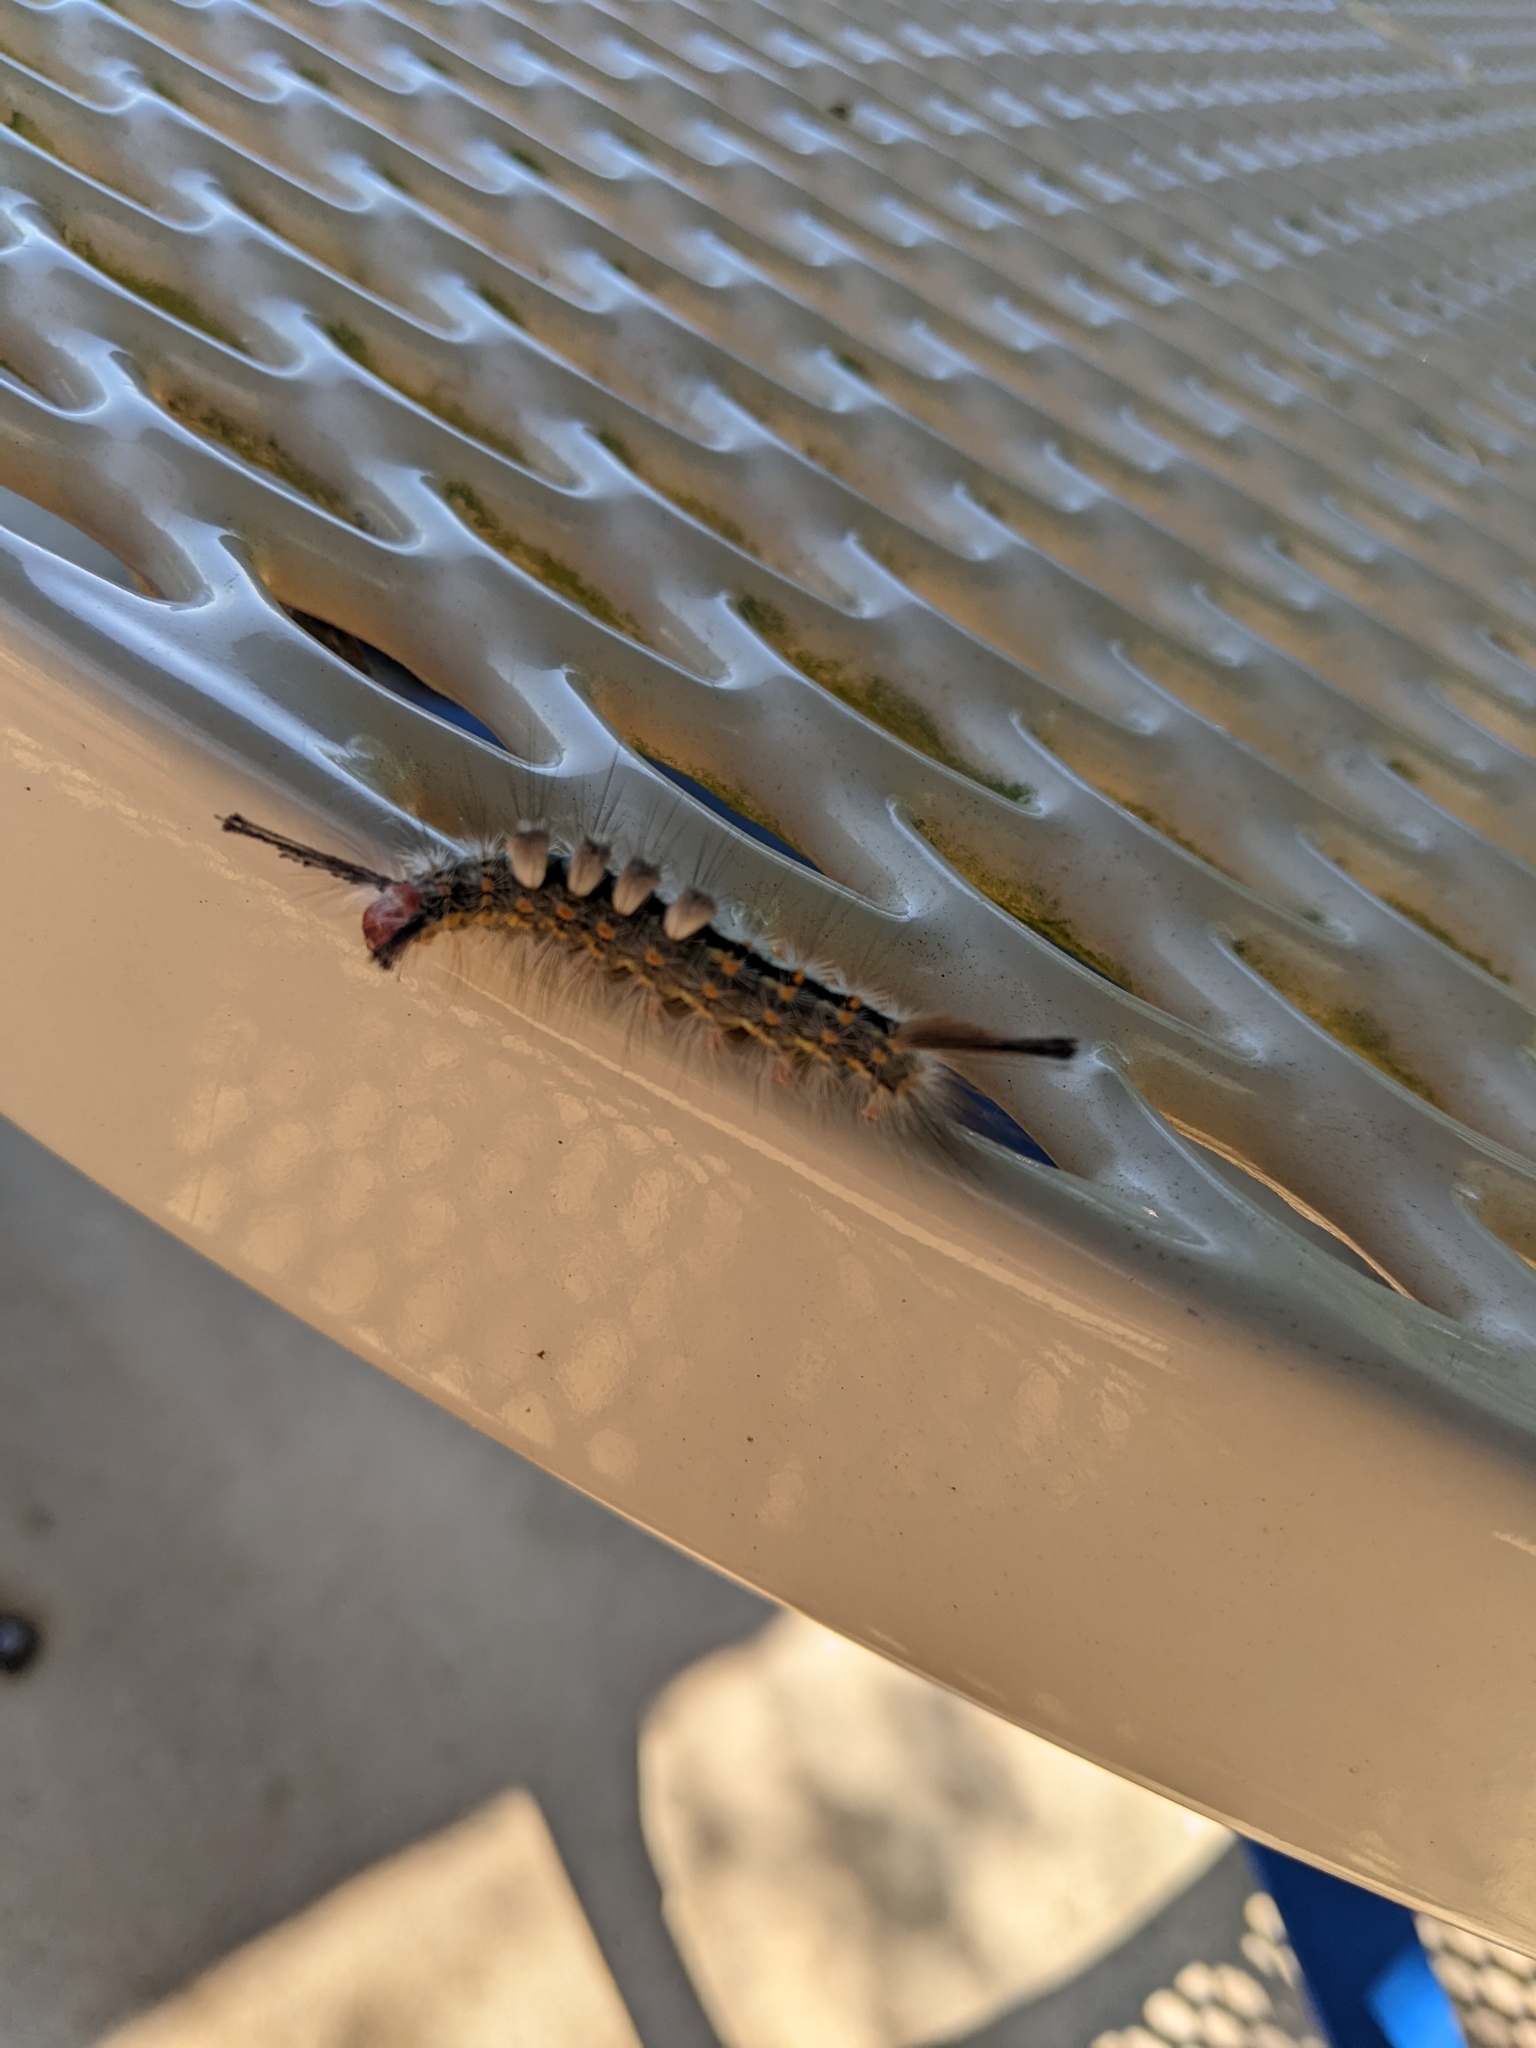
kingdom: Animalia
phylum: Arthropoda
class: Insecta
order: Lepidoptera
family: Erebidae
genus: Orgyia
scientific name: Orgyia detrita
